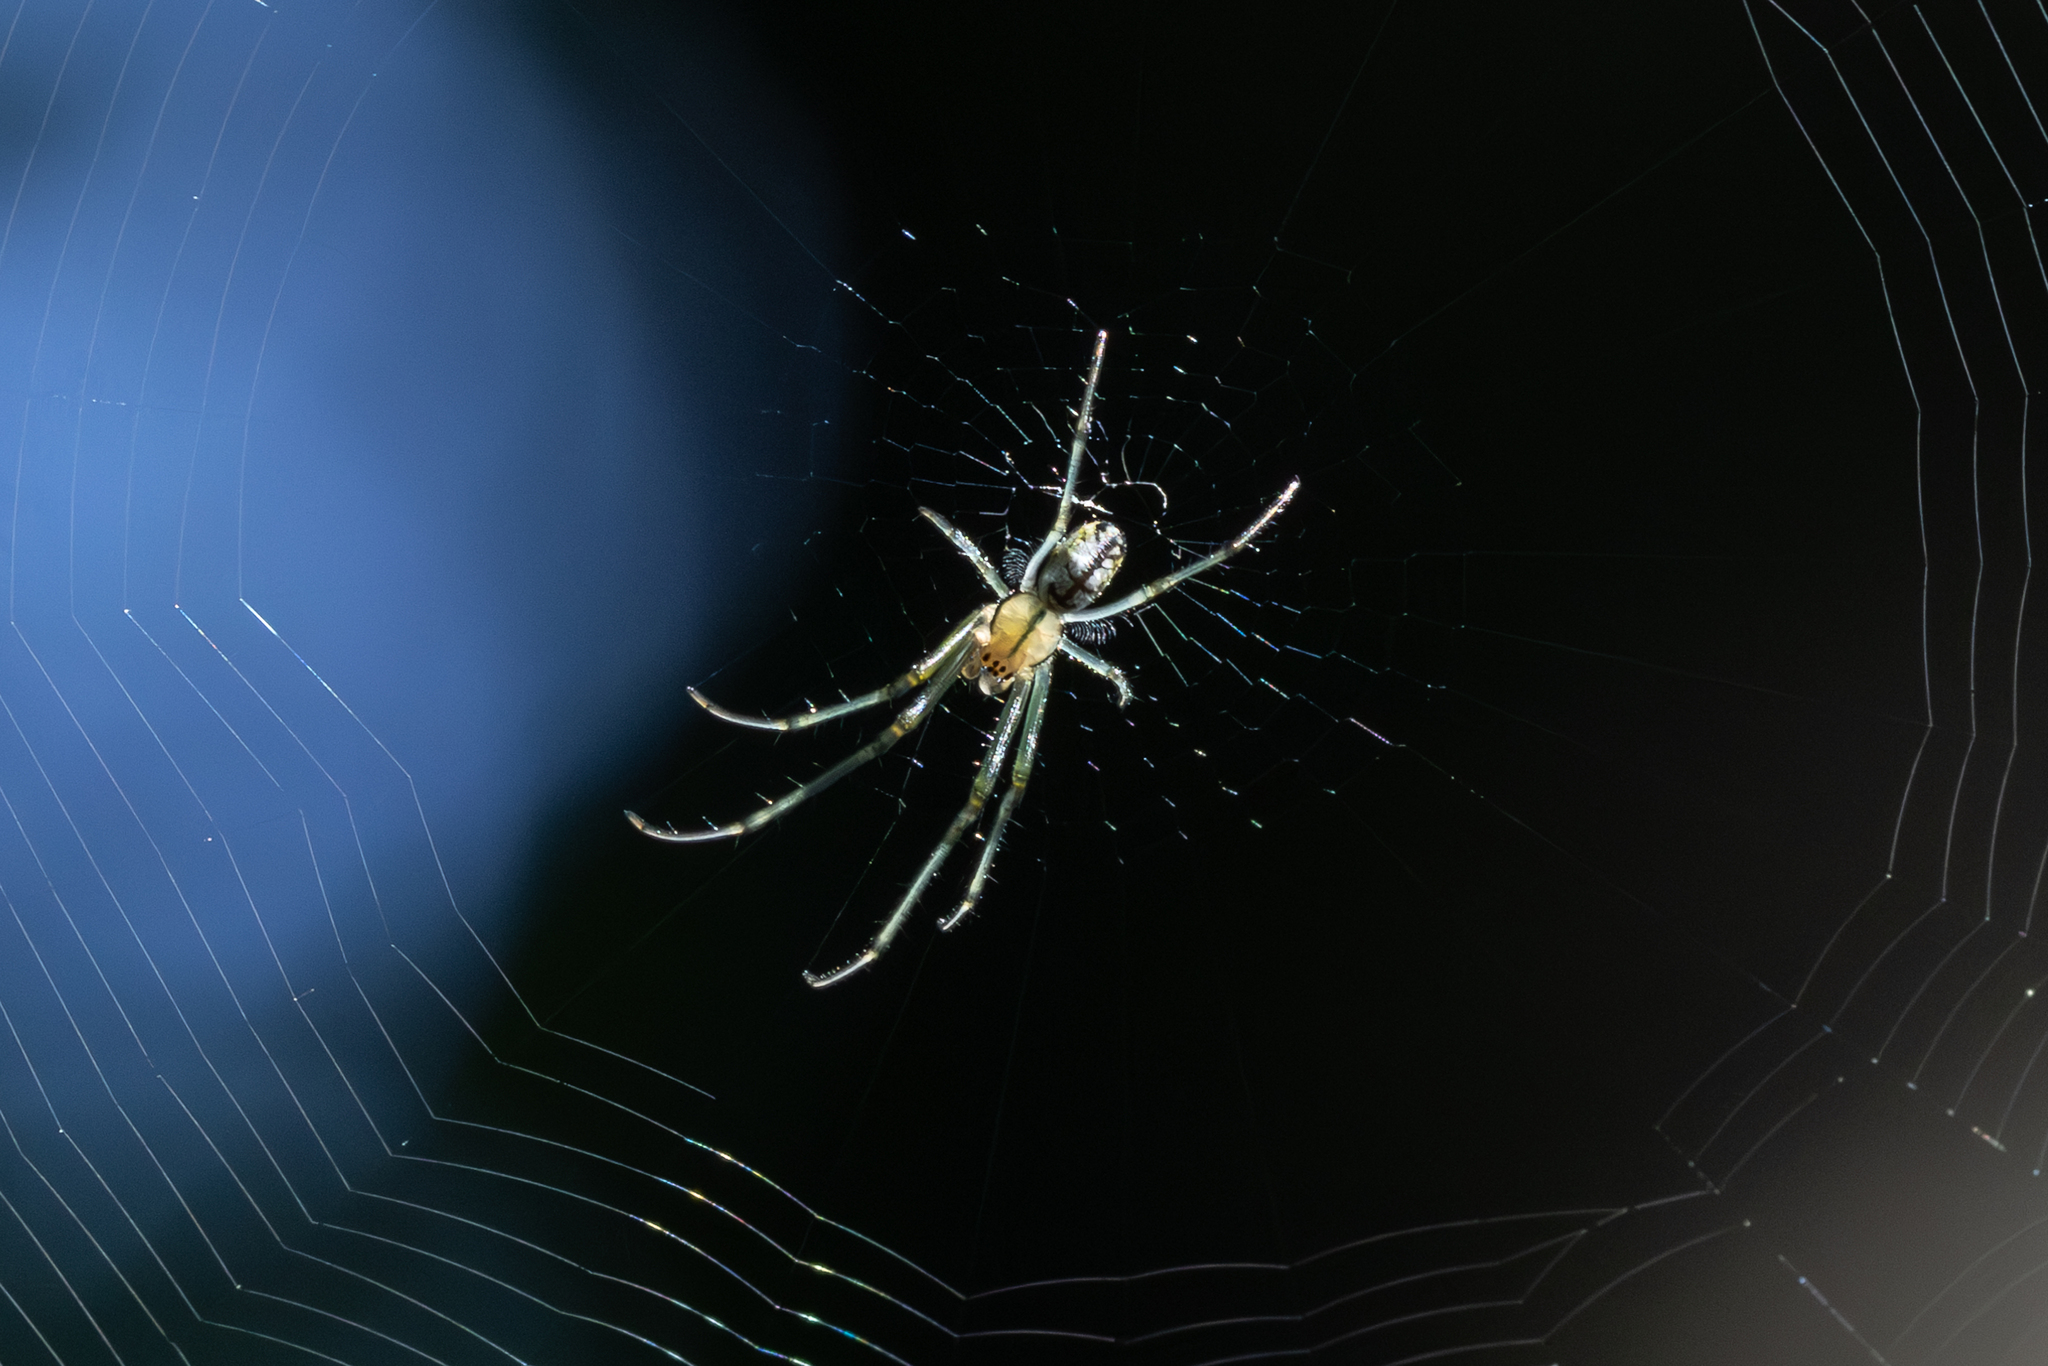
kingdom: Animalia
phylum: Arthropoda
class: Arachnida
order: Araneae
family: Tetragnathidae
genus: Leucauge
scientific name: Leucauge venusta
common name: Longjawed orb weavers
